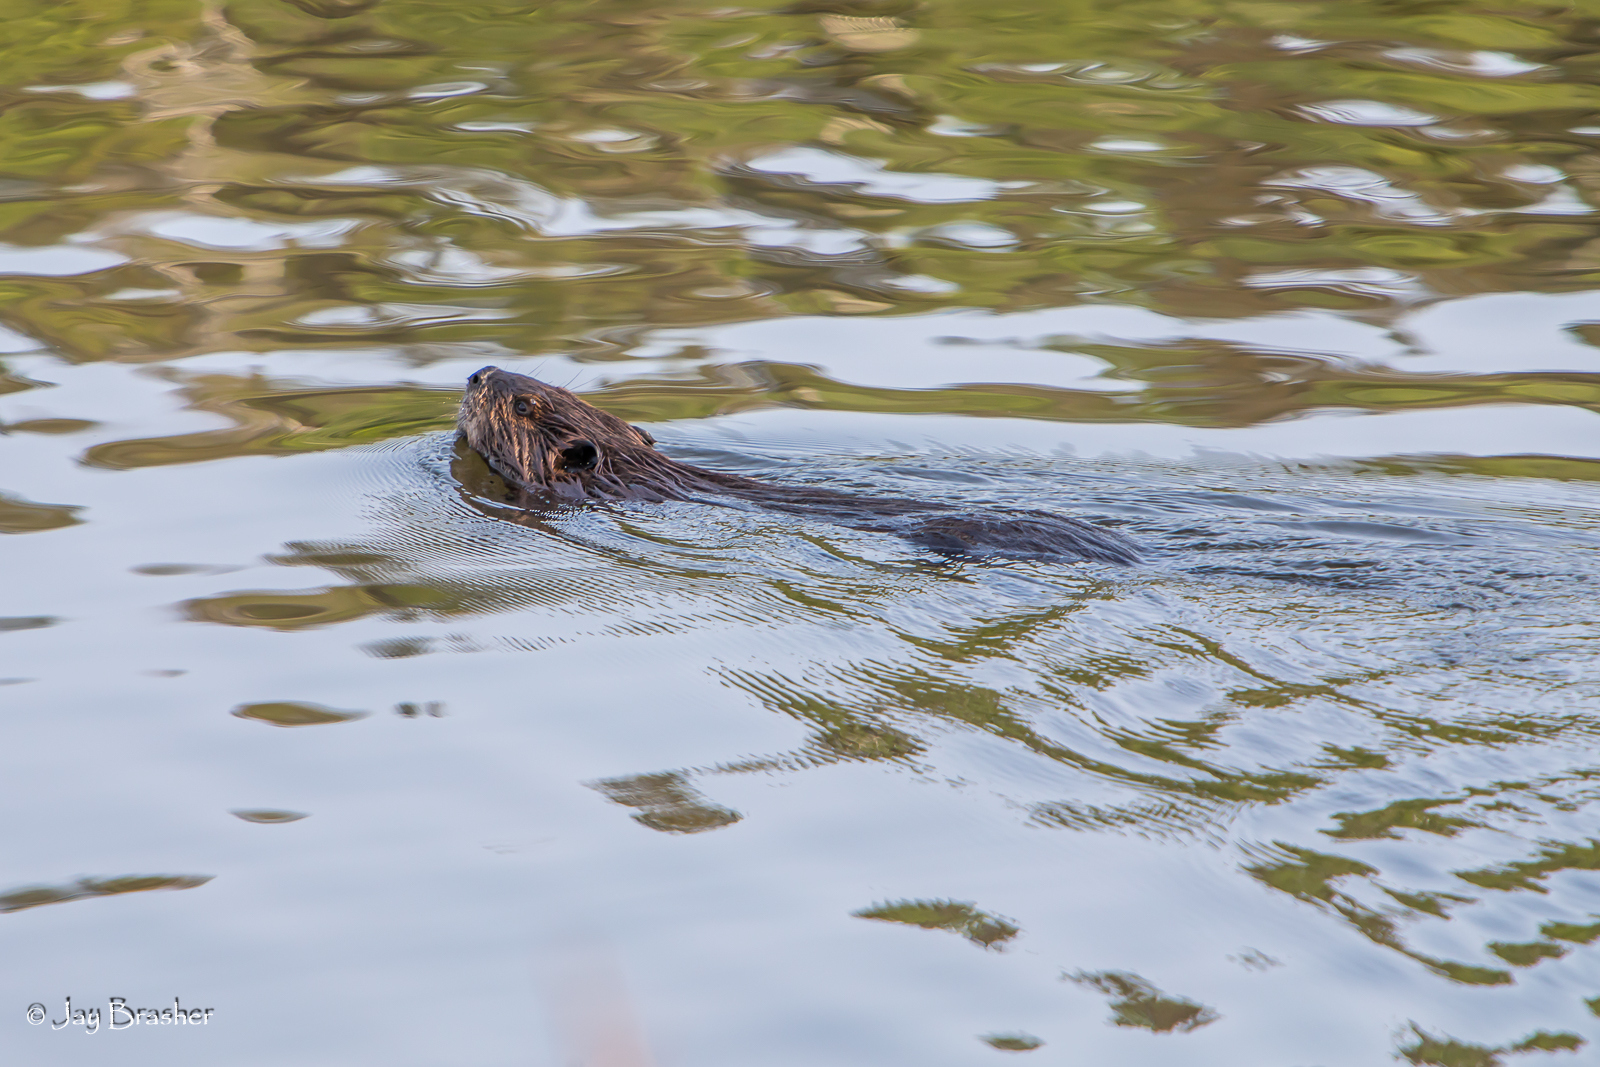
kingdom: Animalia
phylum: Chordata
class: Mammalia
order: Rodentia
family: Castoridae
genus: Castor
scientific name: Castor canadensis
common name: American beaver
